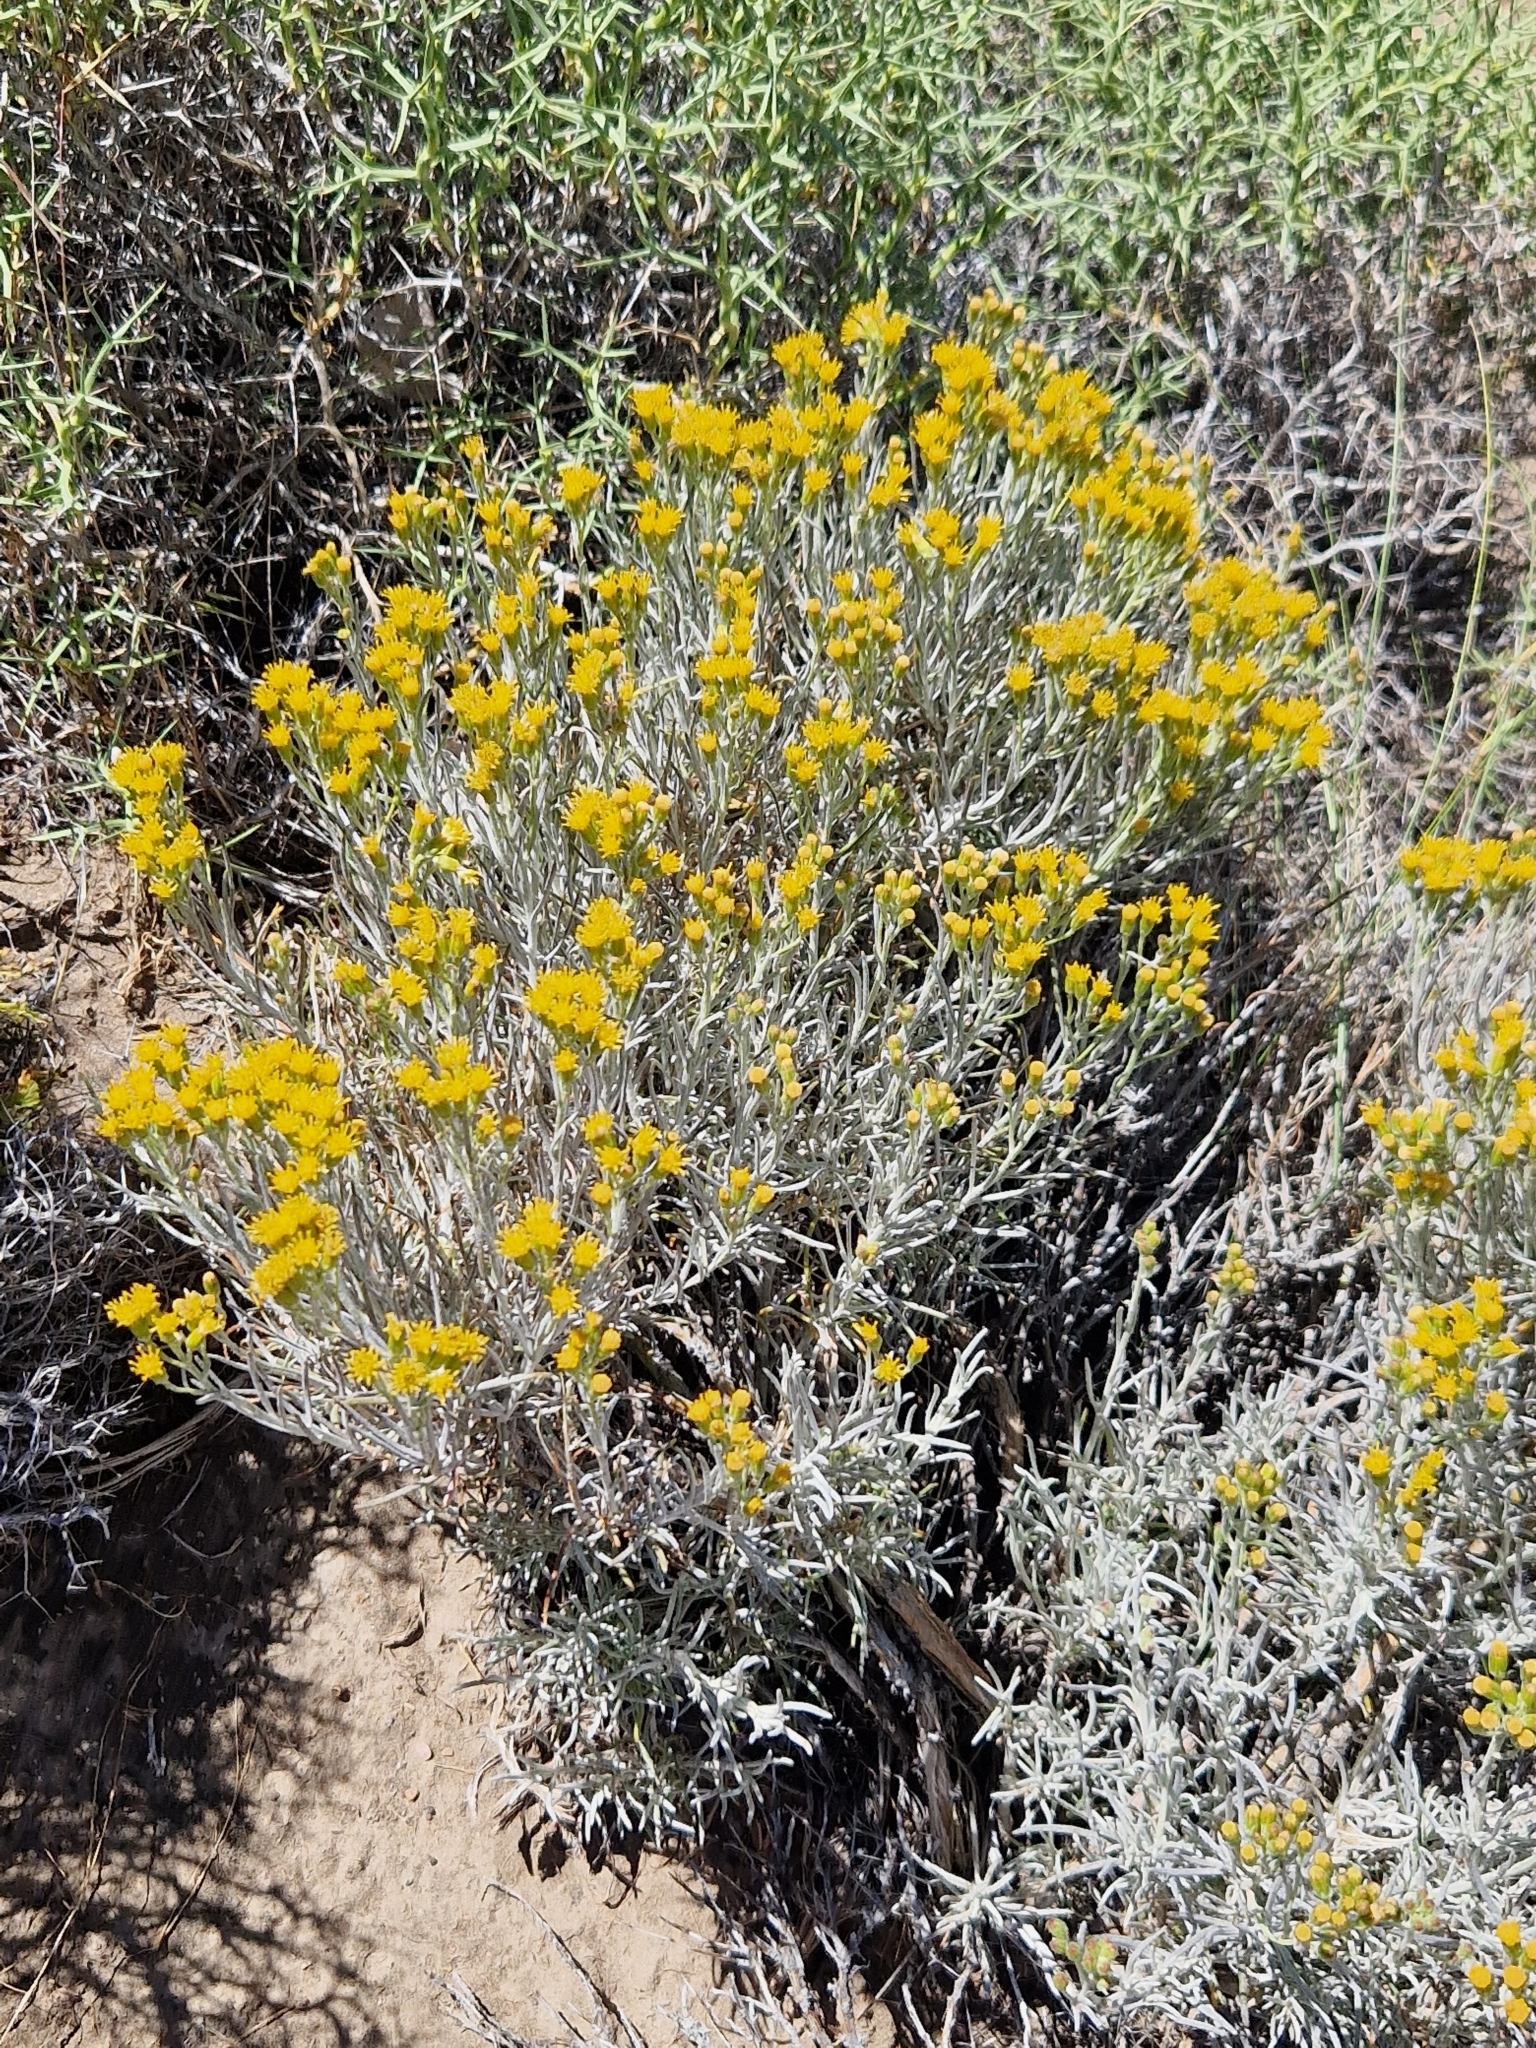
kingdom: Plantae
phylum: Tracheophyta
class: Magnoliopsida
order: Asterales
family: Asteraceae
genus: Senecio
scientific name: Senecio filaginoides
